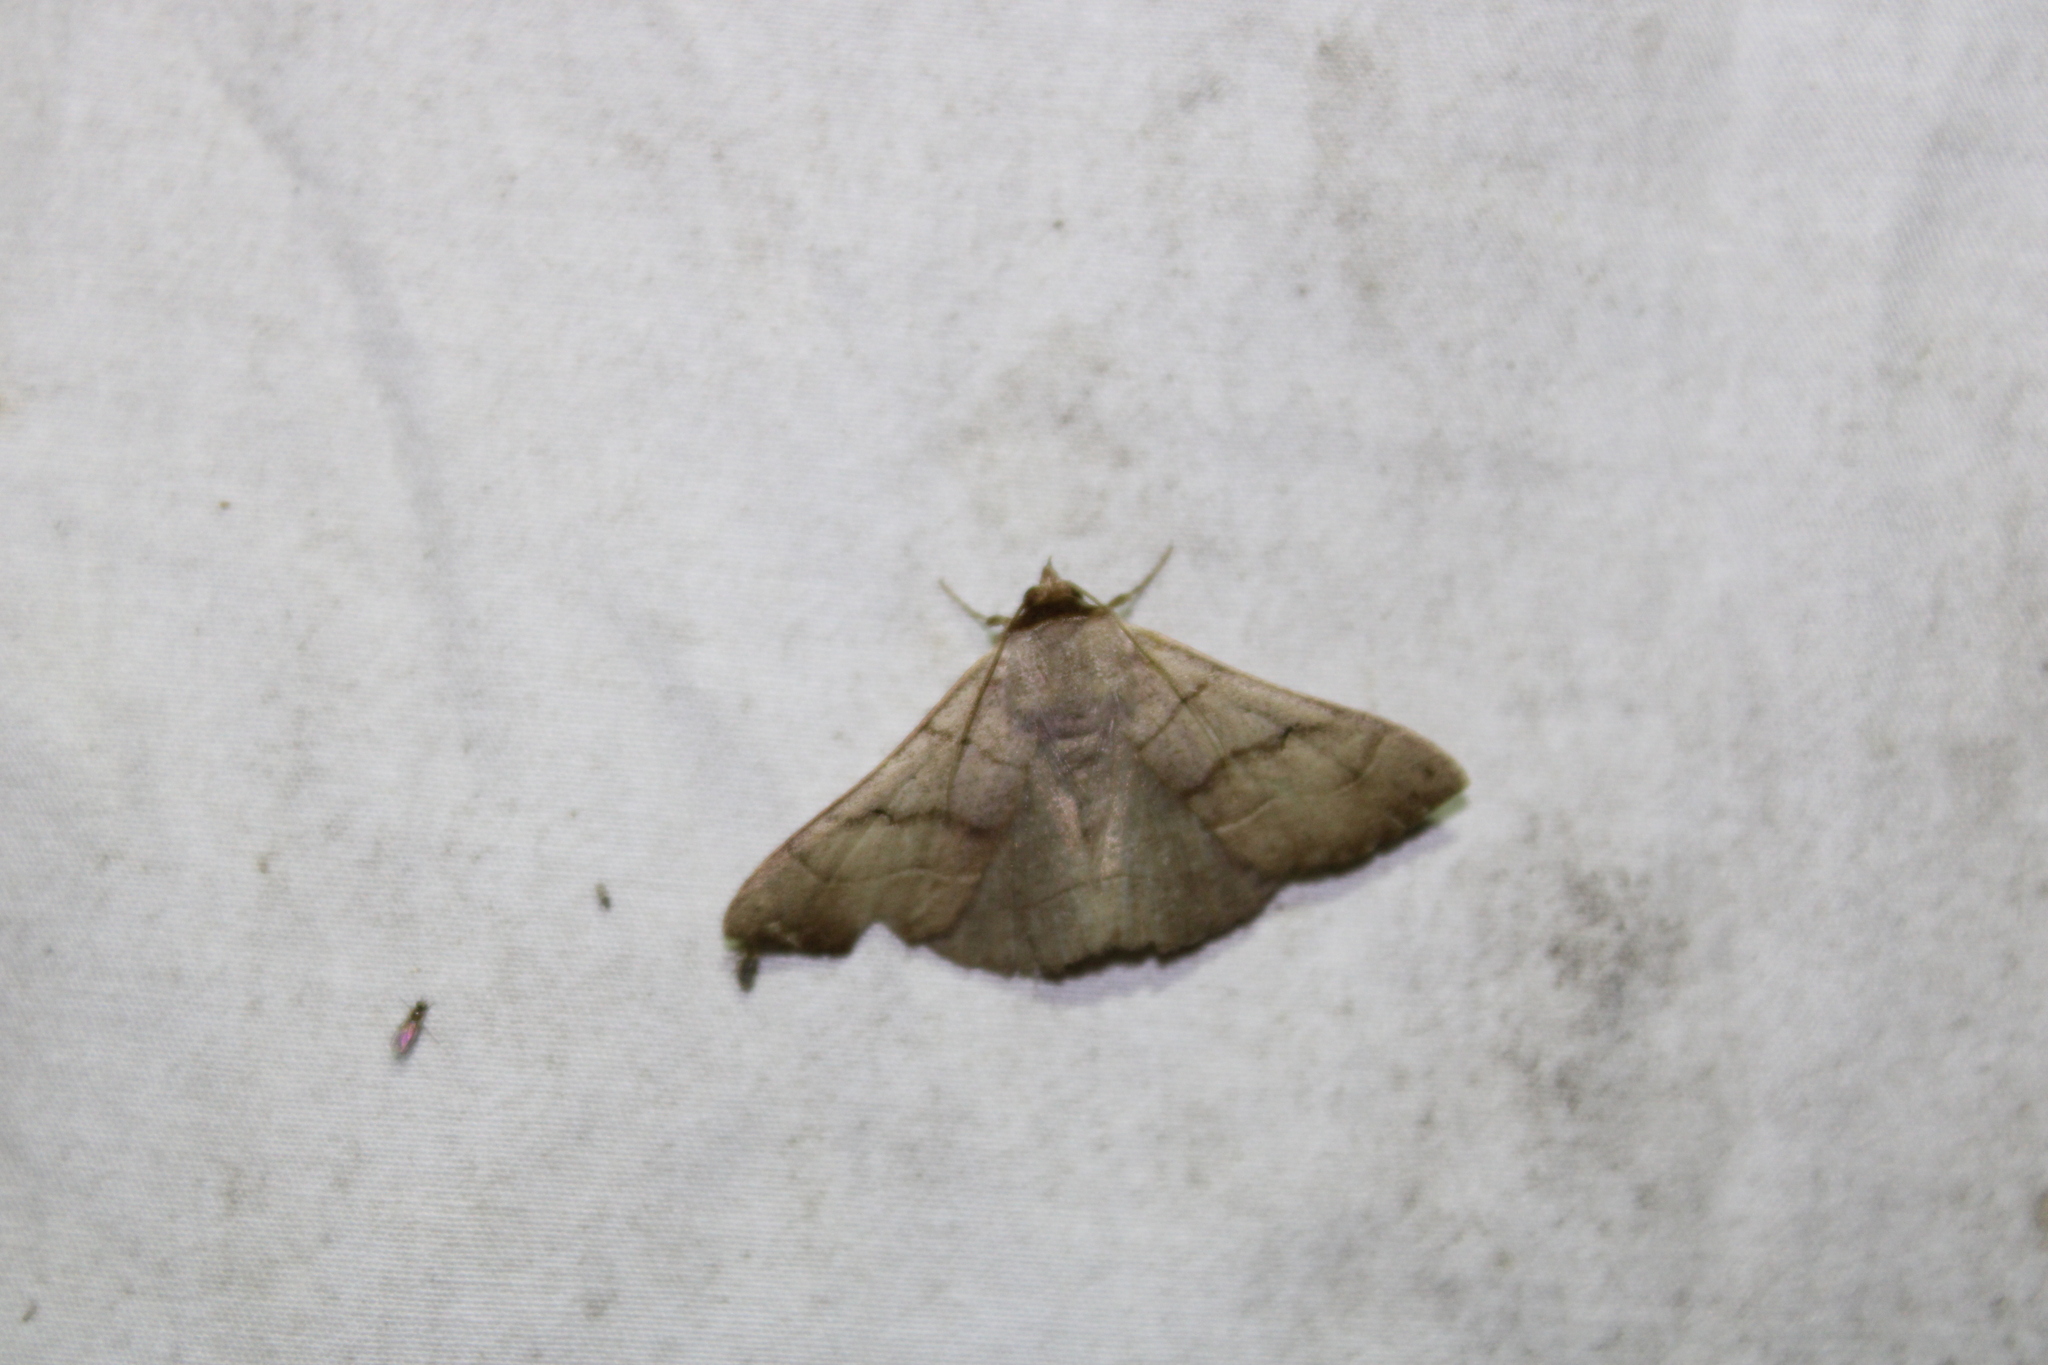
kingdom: Animalia
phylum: Arthropoda
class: Insecta
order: Lepidoptera
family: Erebidae
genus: Panopoda
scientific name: Panopoda carneicosta
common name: Brown panopoda moth
